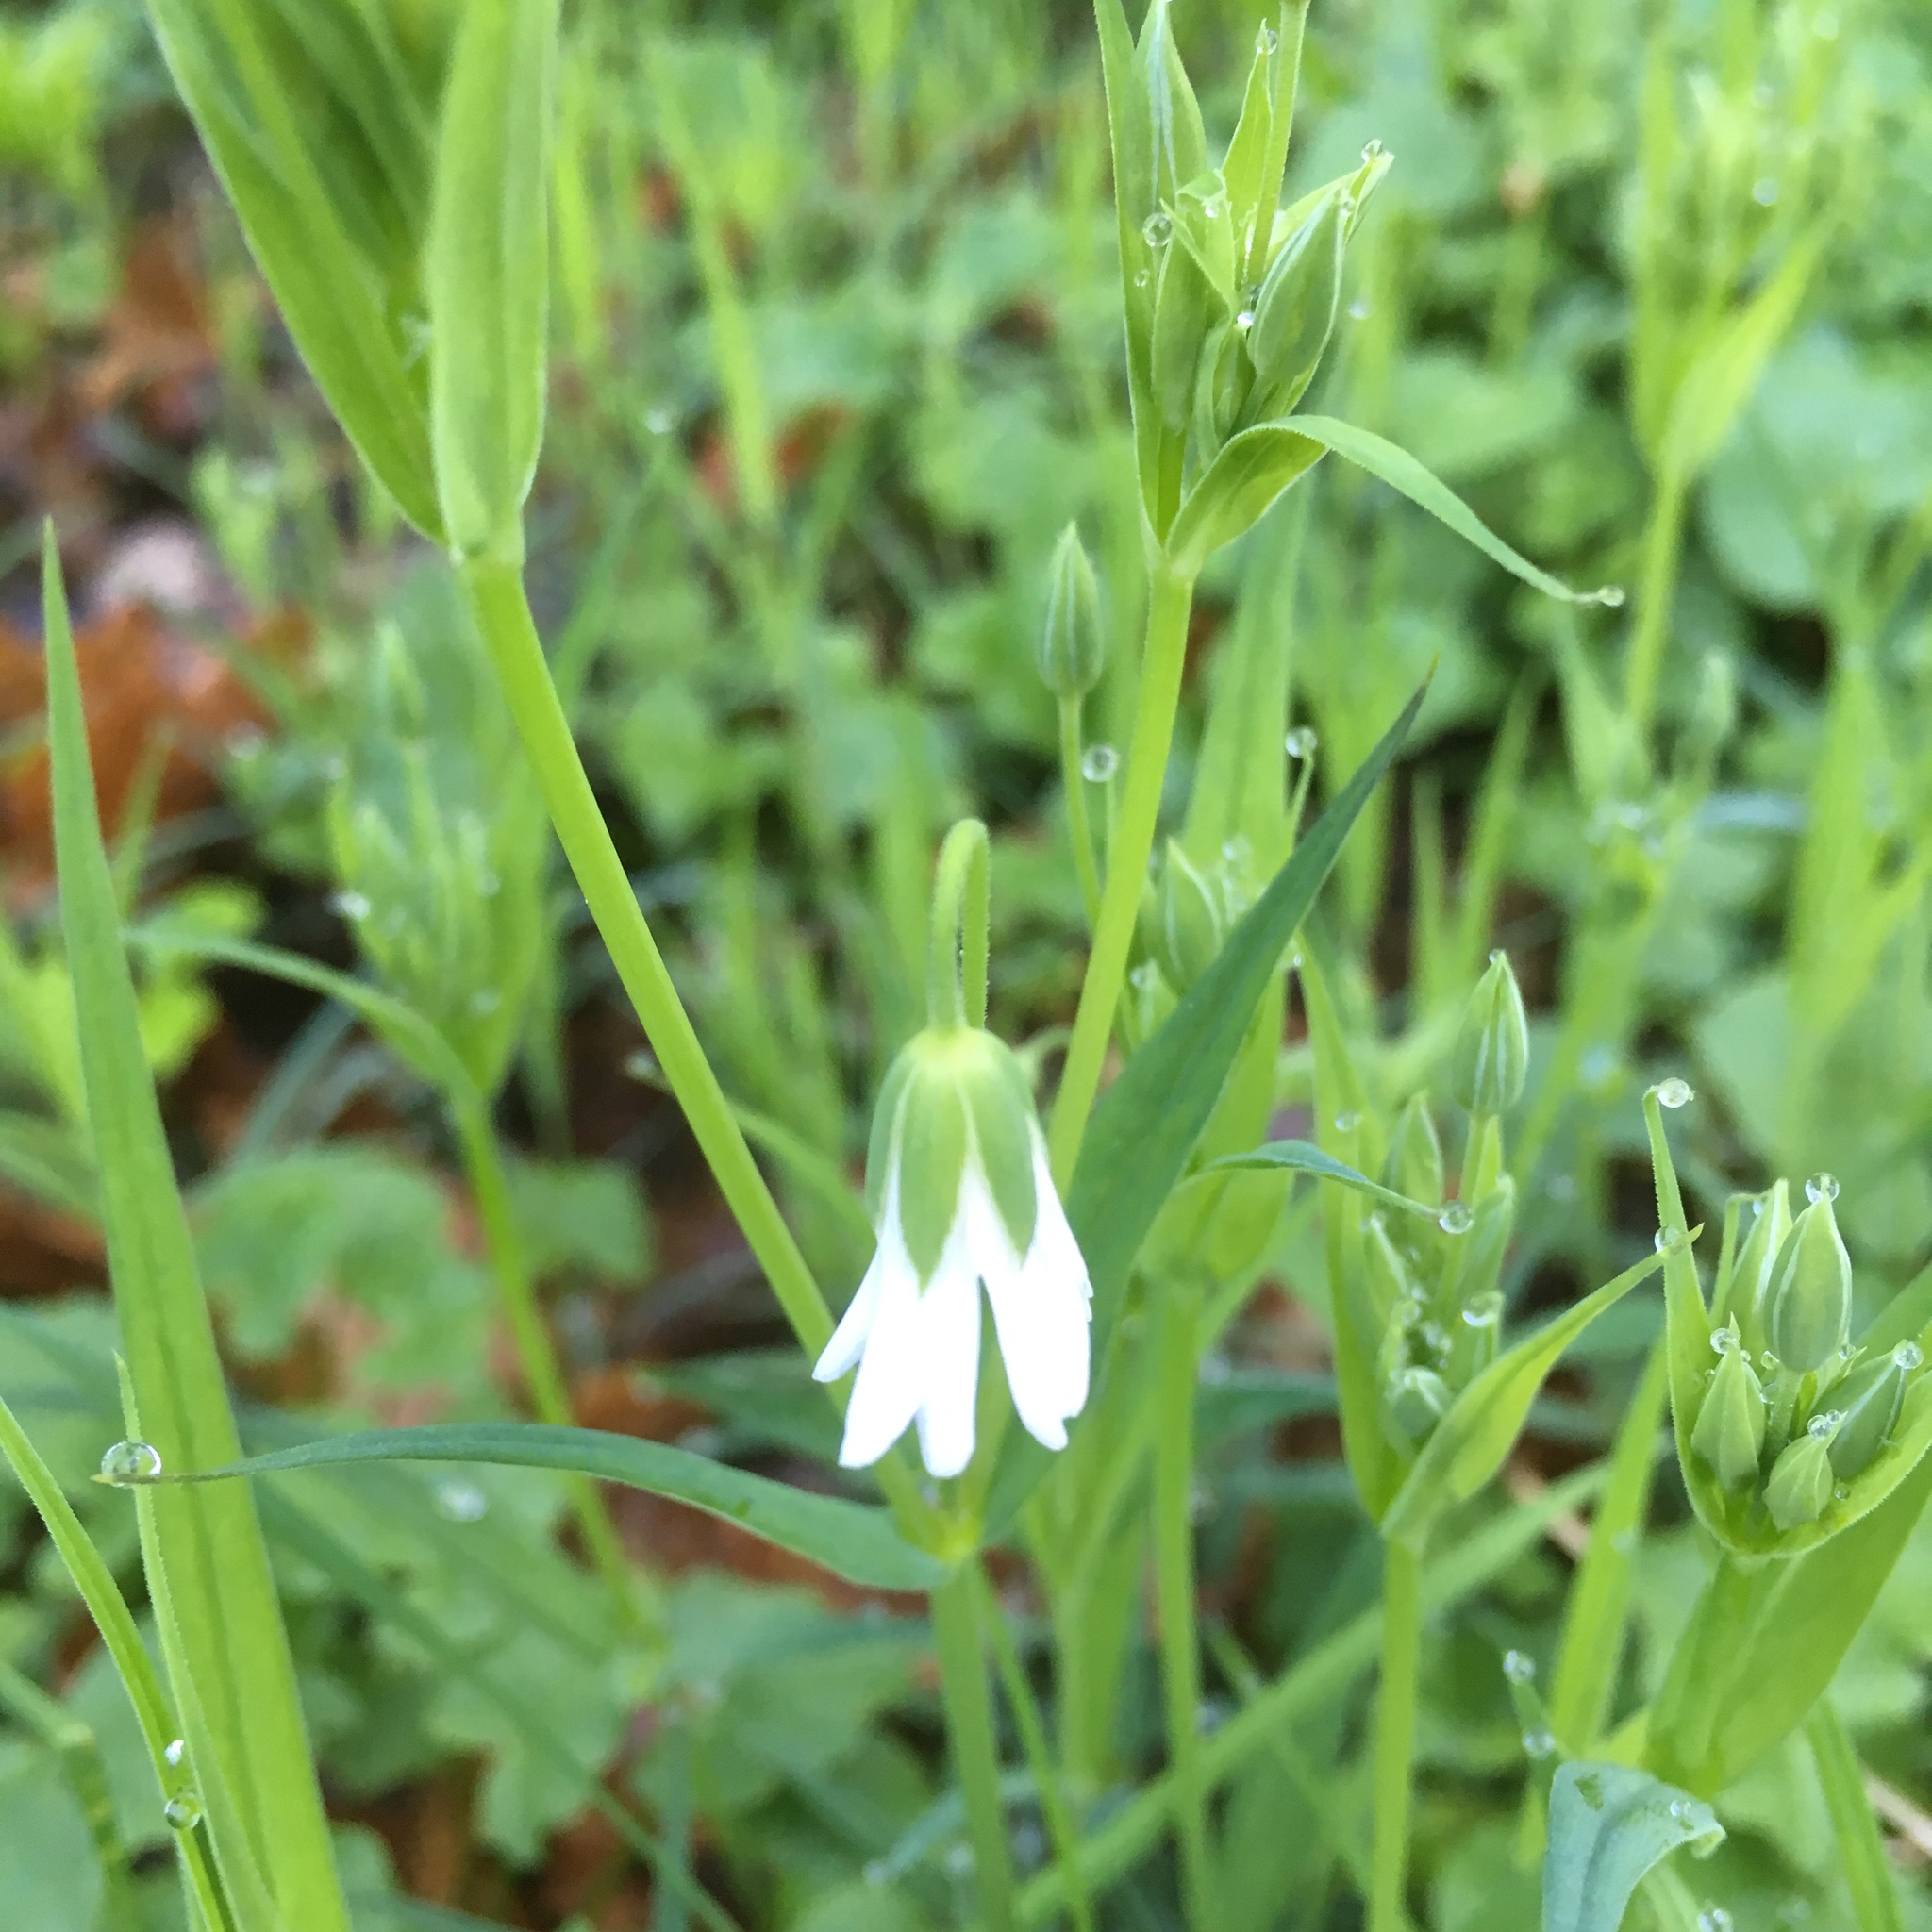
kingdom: Plantae
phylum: Tracheophyta
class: Magnoliopsida
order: Caryophyllales
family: Caryophyllaceae
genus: Rabelera
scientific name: Rabelera holostea
